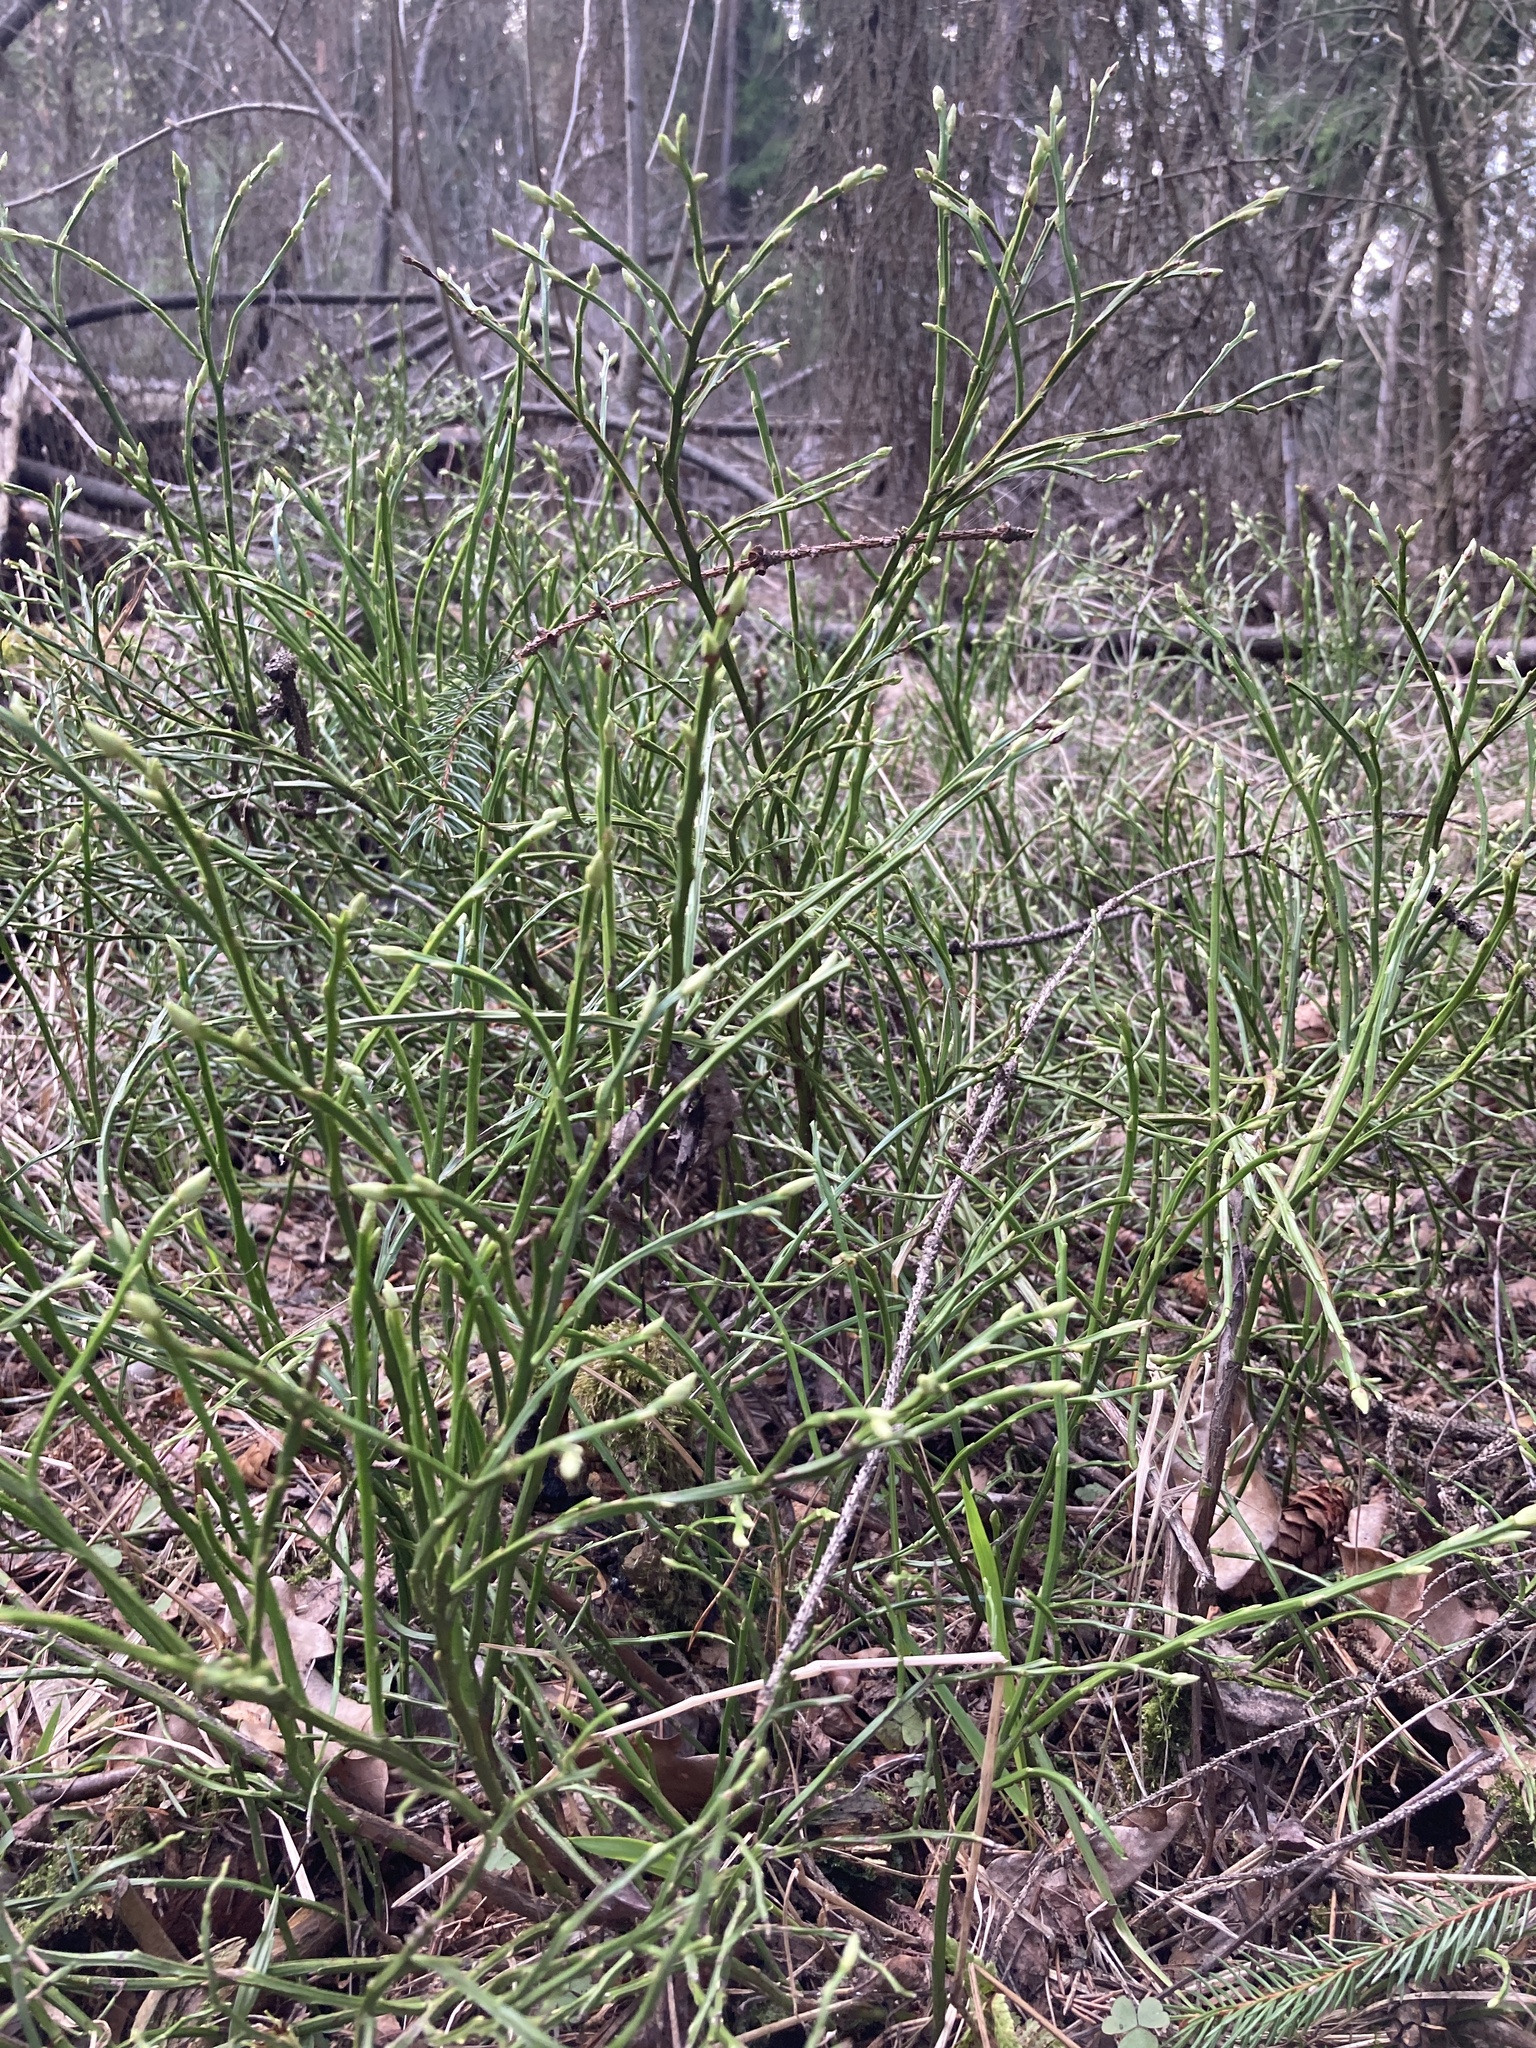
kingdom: Plantae
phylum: Tracheophyta
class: Magnoliopsida
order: Ericales
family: Ericaceae
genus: Vaccinium
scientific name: Vaccinium myrtillus
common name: Bilberry
